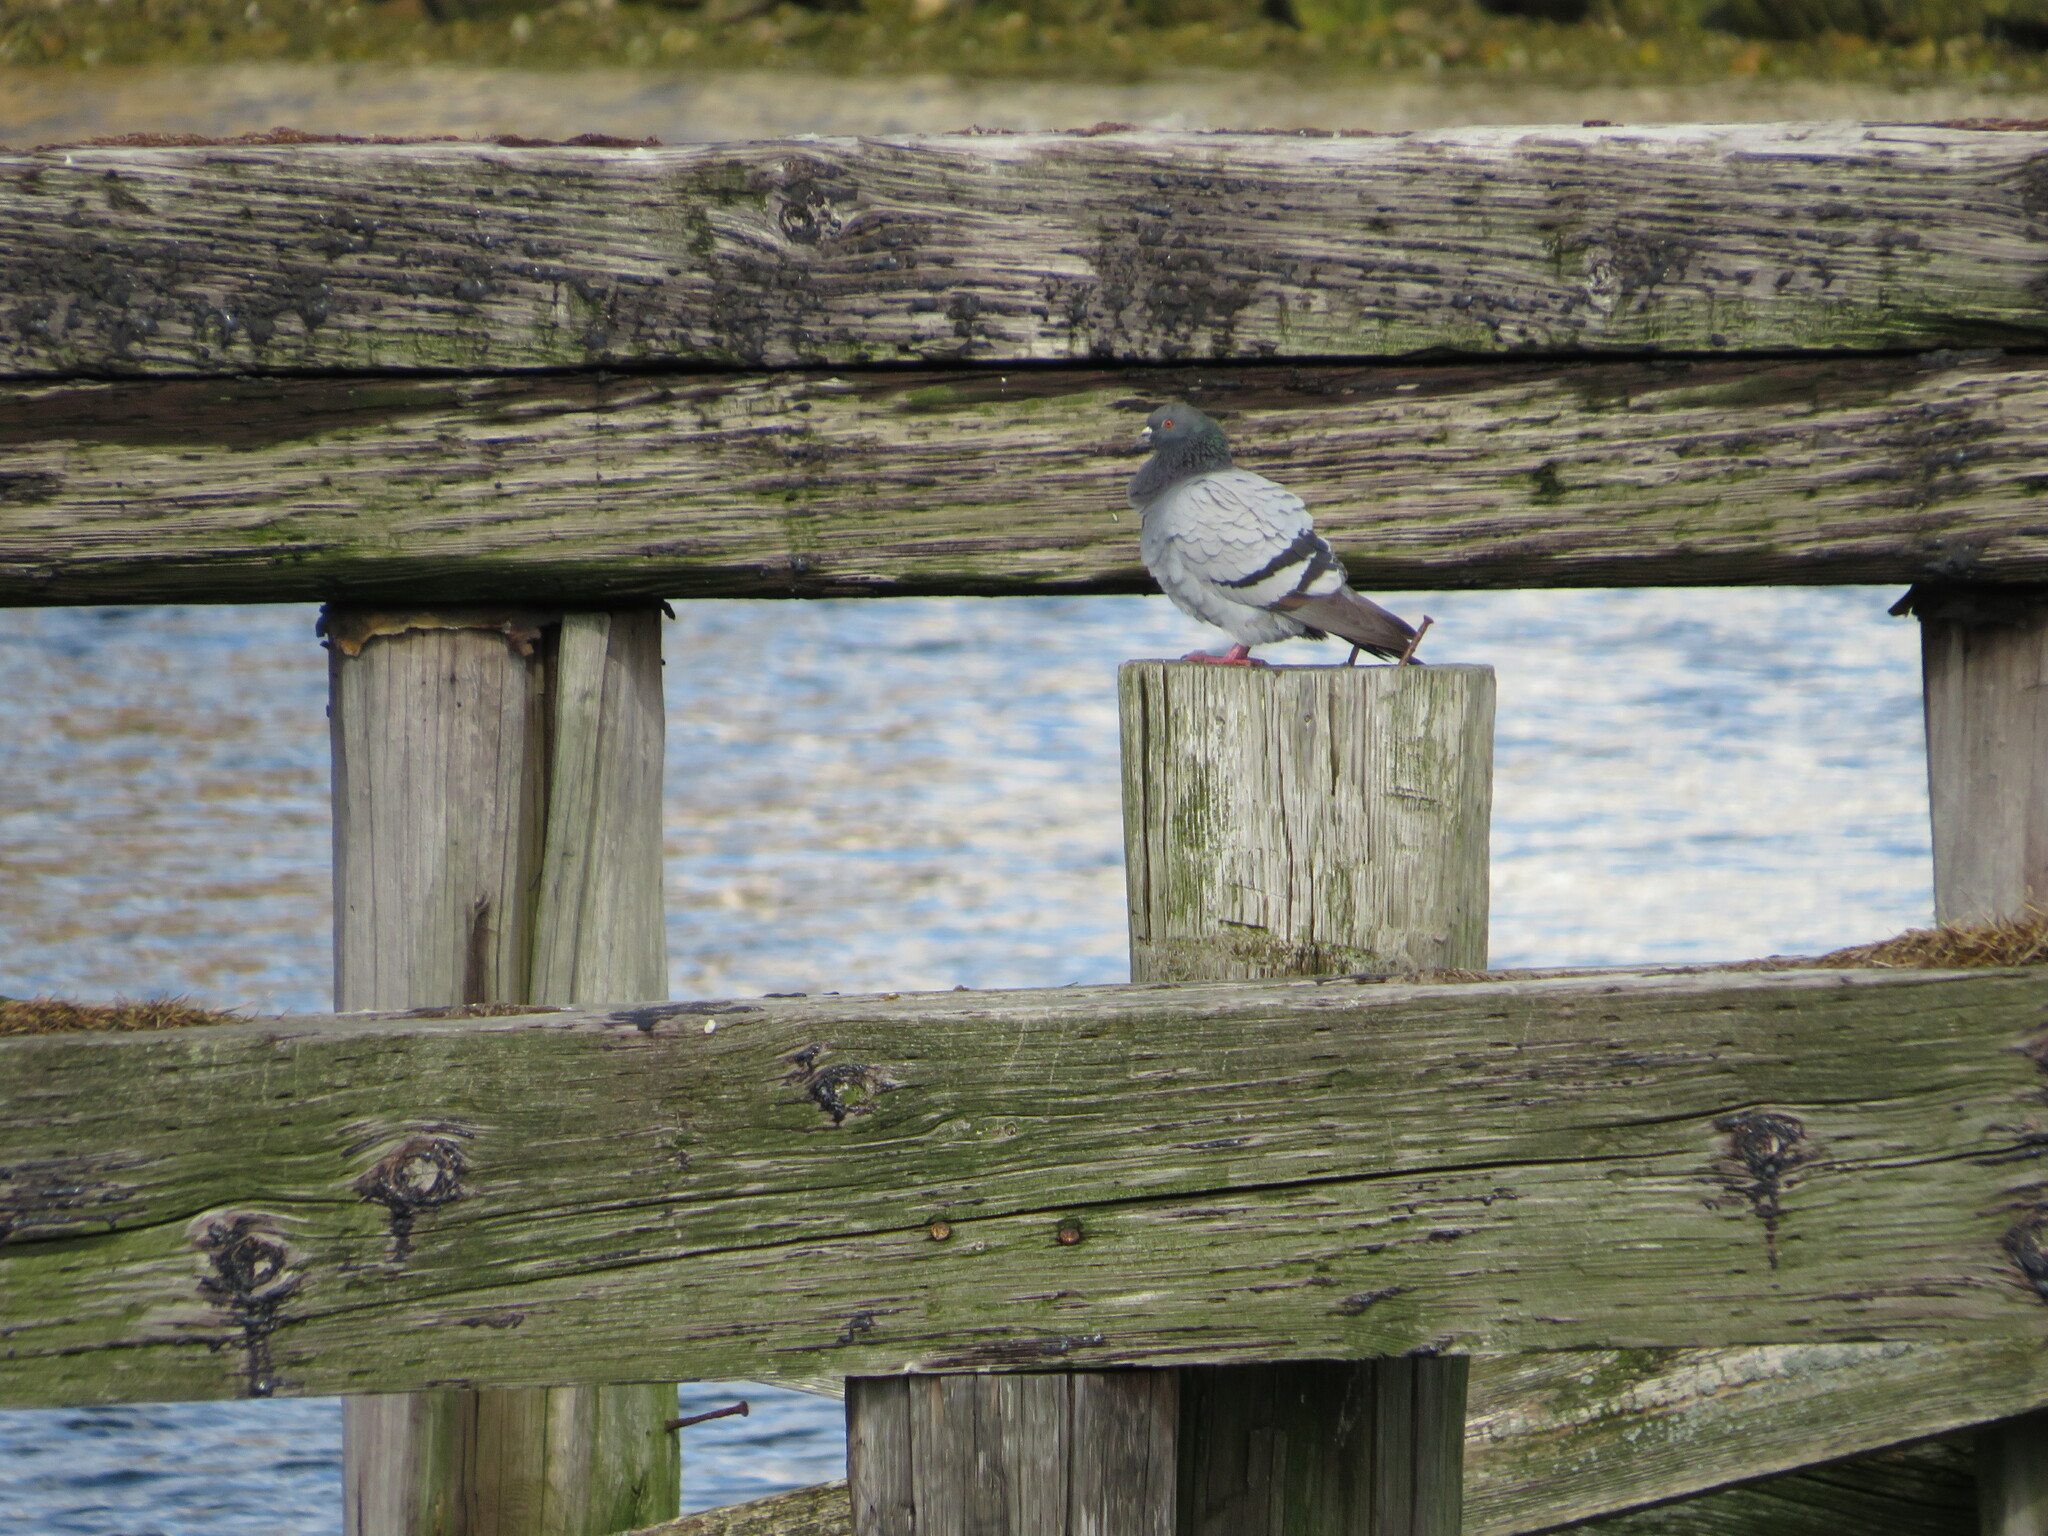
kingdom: Animalia
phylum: Chordata
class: Aves
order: Columbiformes
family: Columbidae
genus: Columba
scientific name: Columba livia
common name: Rock pigeon
